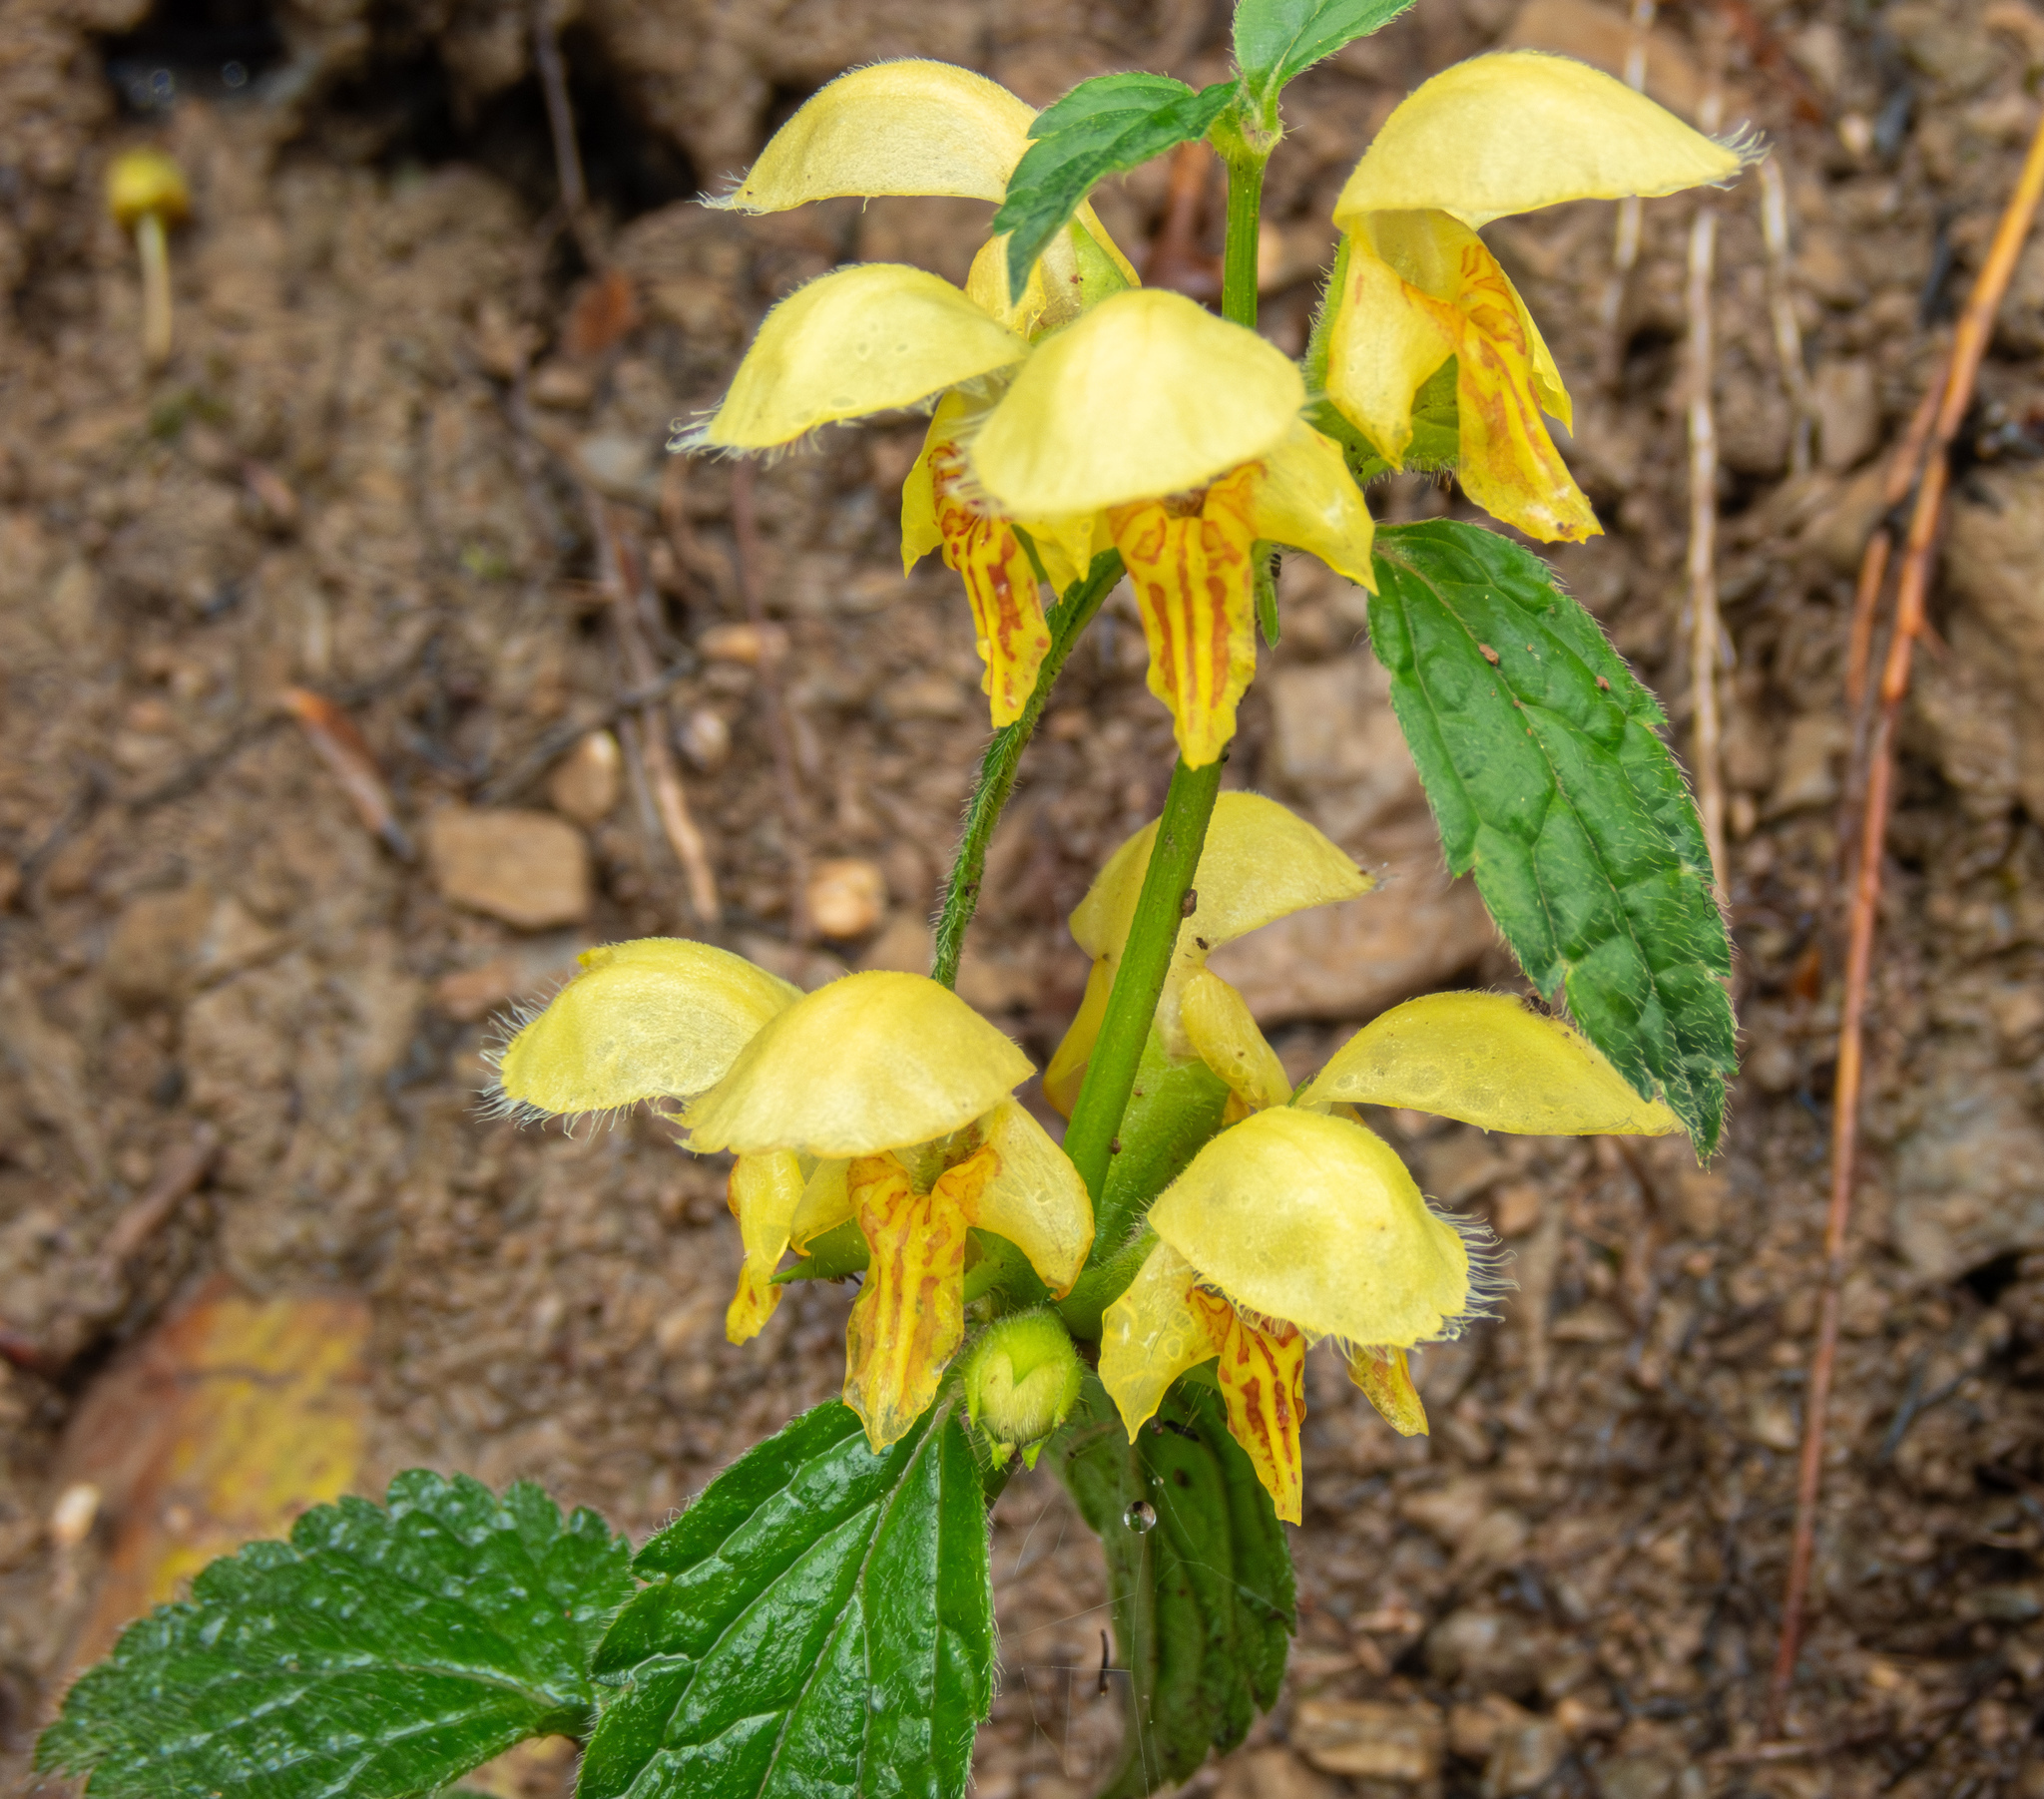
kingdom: Plantae
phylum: Tracheophyta
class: Magnoliopsida
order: Lamiales
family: Lamiaceae
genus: Lamium
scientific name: Lamium galeobdolon
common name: Yellow archangel
